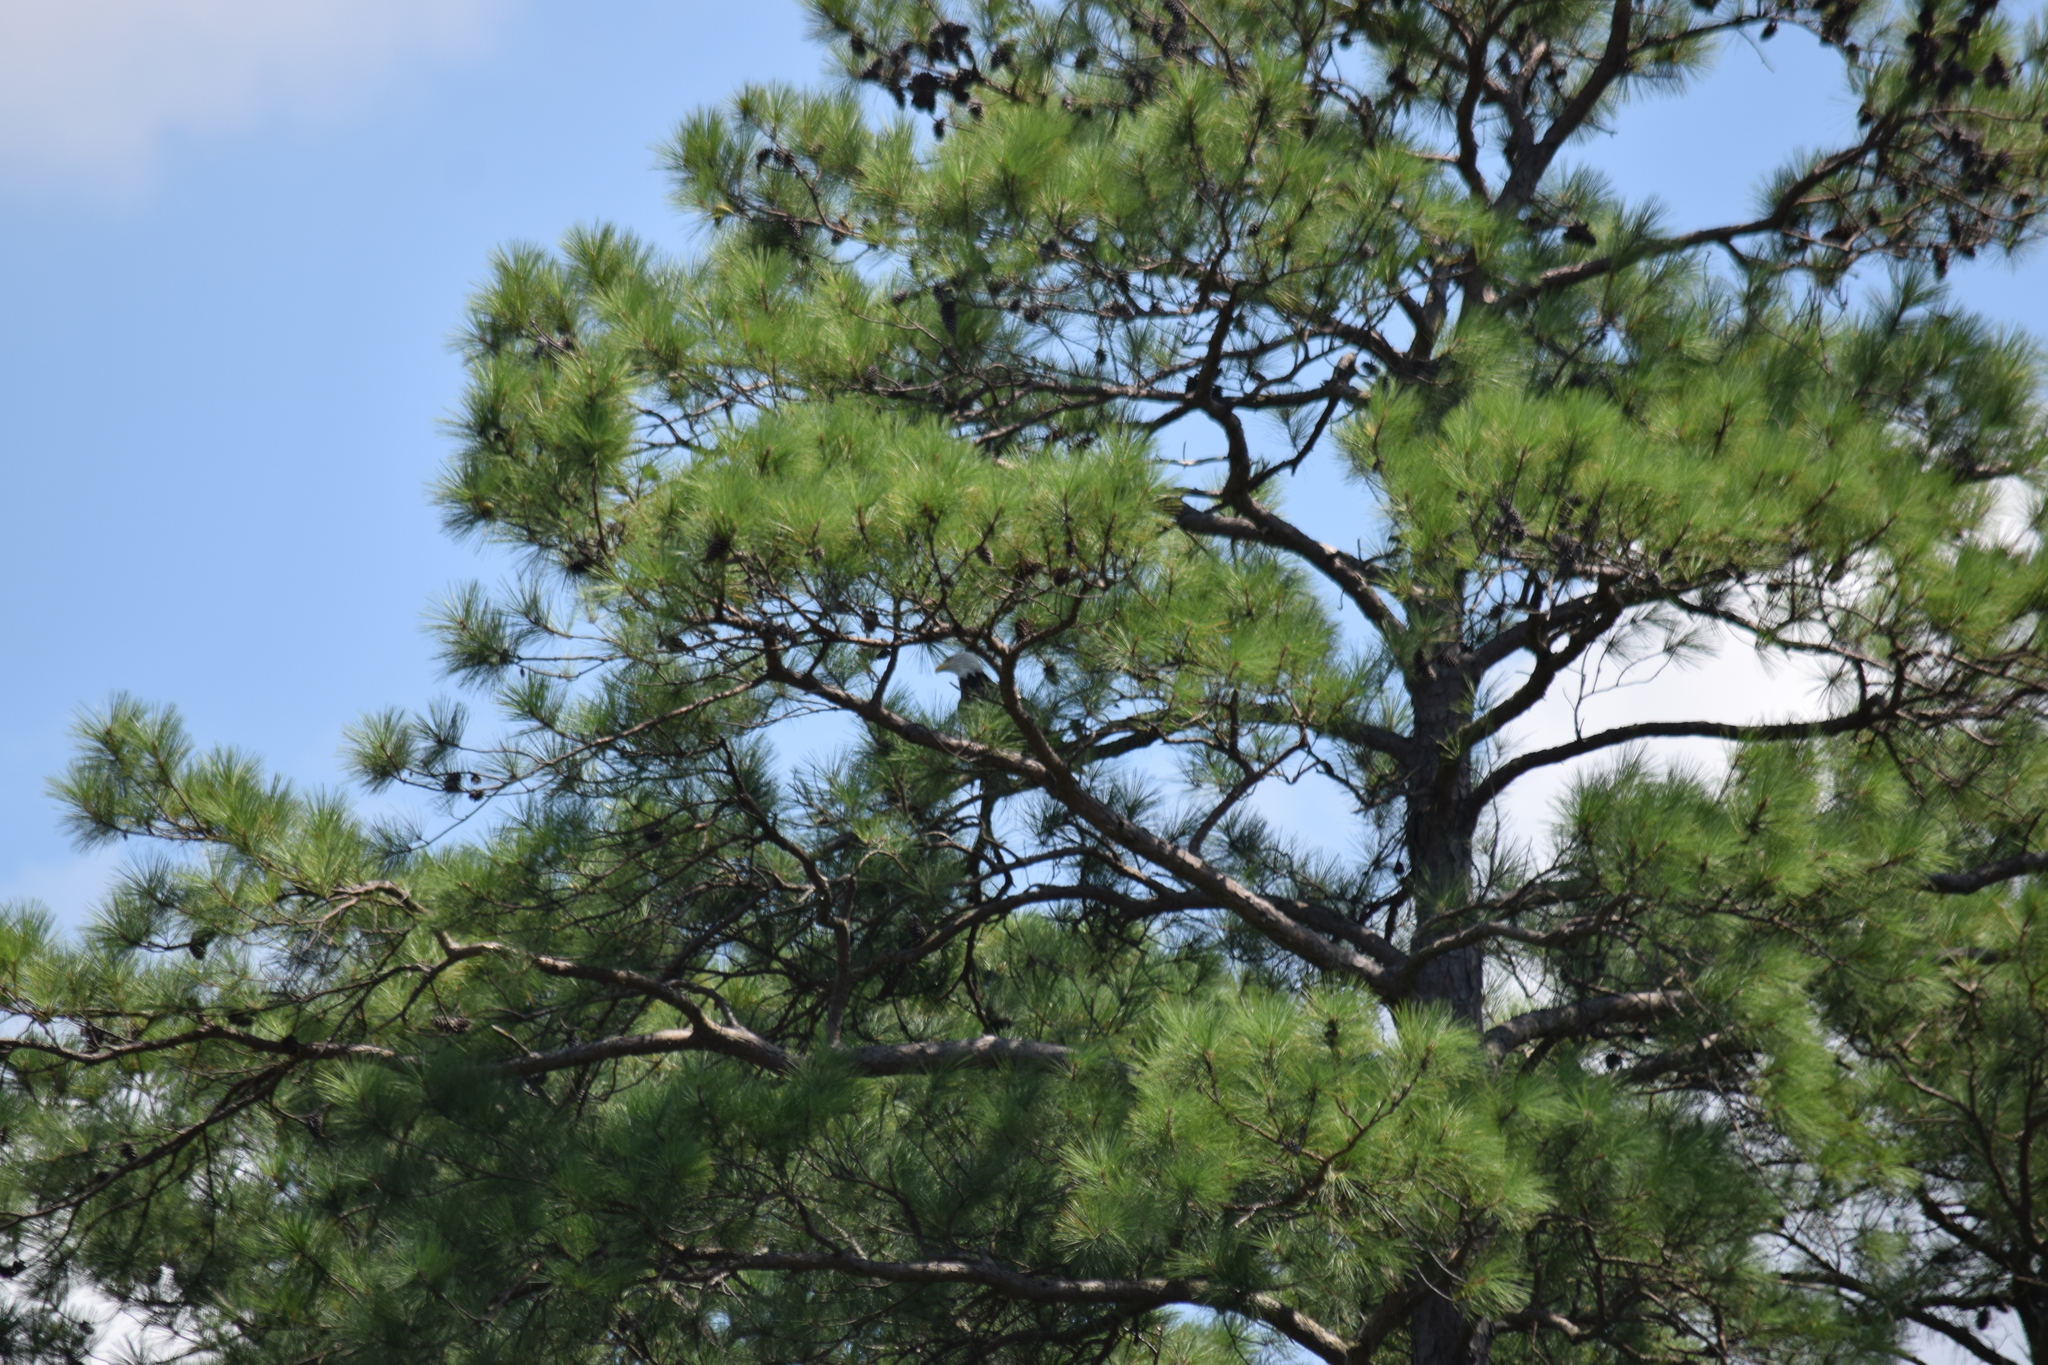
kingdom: Animalia
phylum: Chordata
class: Aves
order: Accipitriformes
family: Accipitridae
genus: Haliaeetus
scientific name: Haliaeetus leucocephalus
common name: Bald eagle
